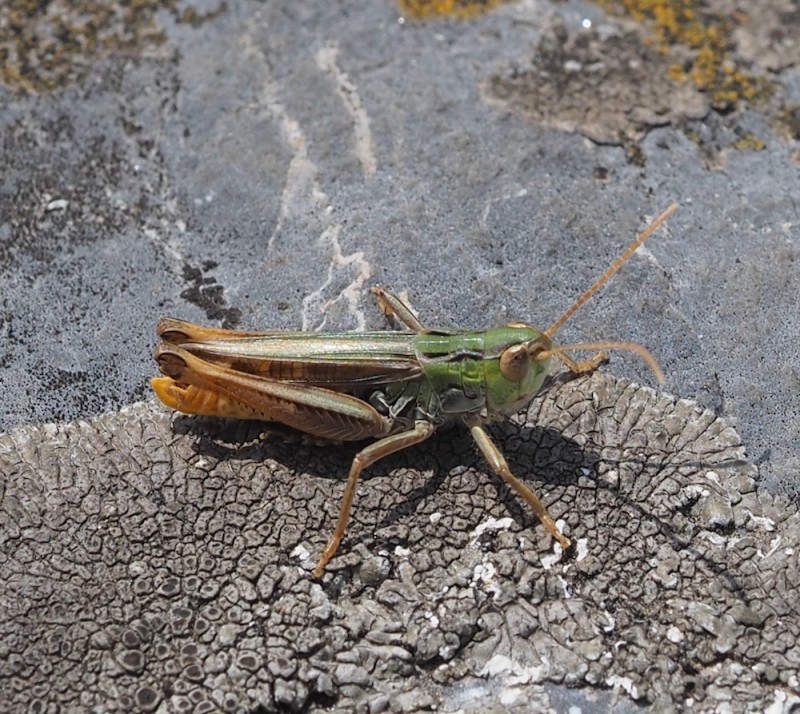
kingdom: Animalia
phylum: Arthropoda
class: Insecta
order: Orthoptera
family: Acrididae
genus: Stenobothrus
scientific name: Stenobothrus nigromaculatus
